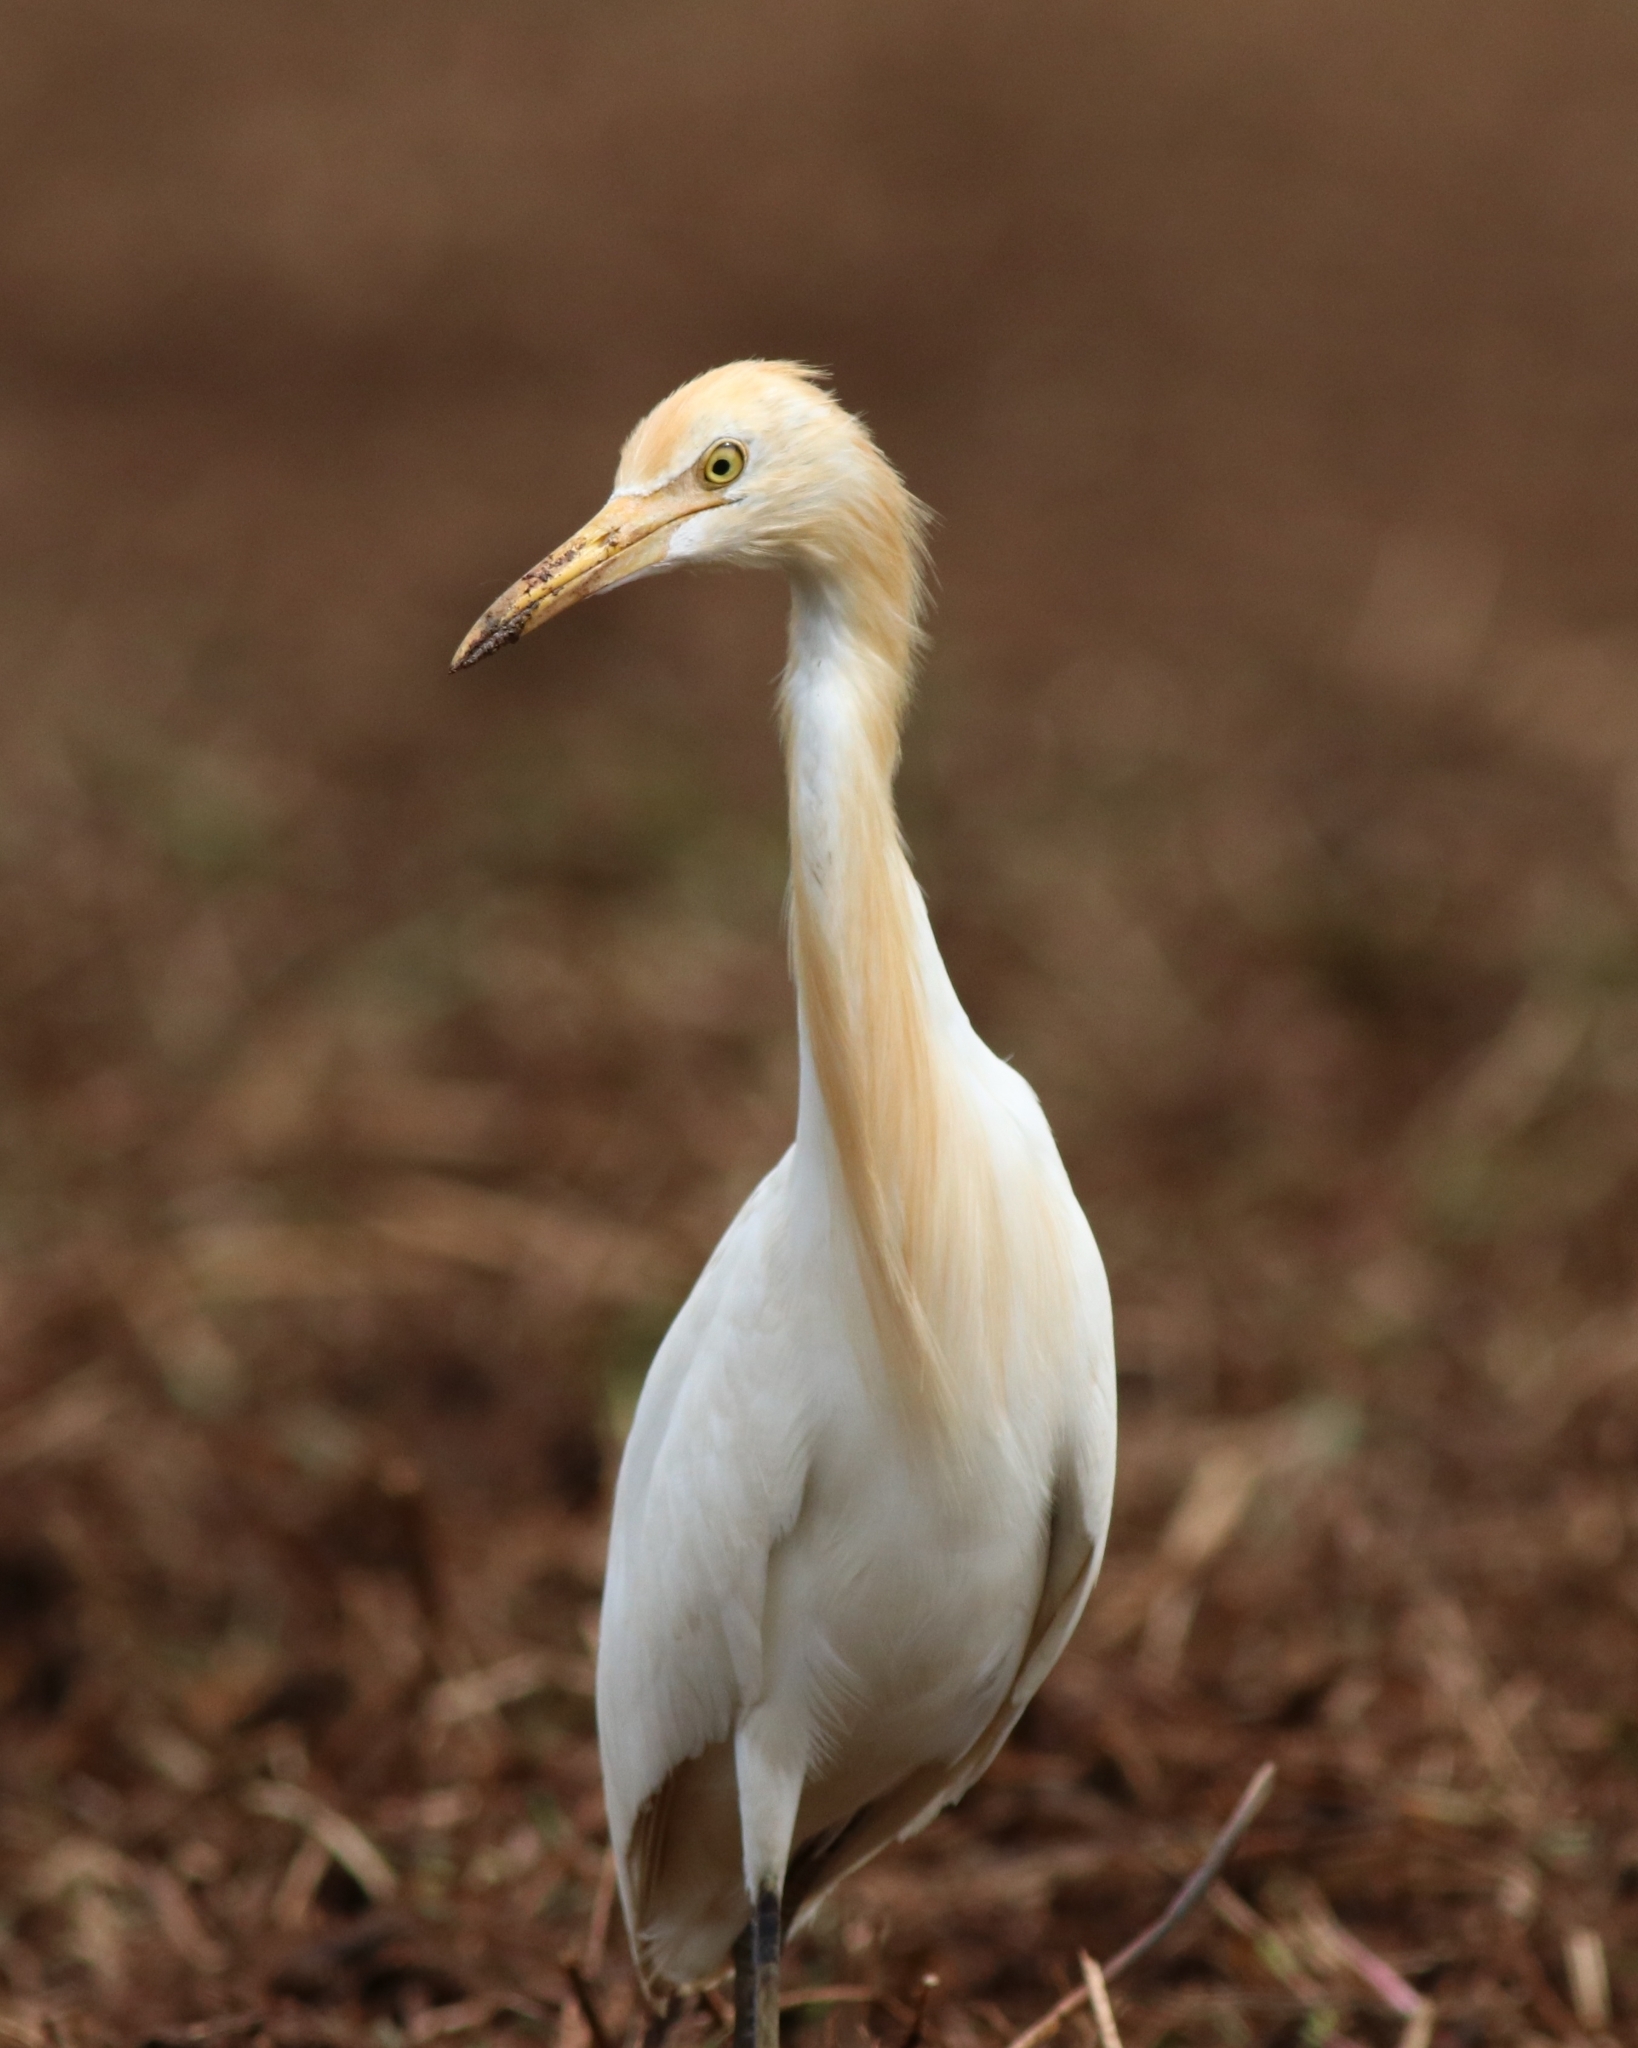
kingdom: Animalia
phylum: Chordata
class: Aves
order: Pelecaniformes
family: Ardeidae
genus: Bubulcus
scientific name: Bubulcus coromandus
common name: Eastern cattle egret
